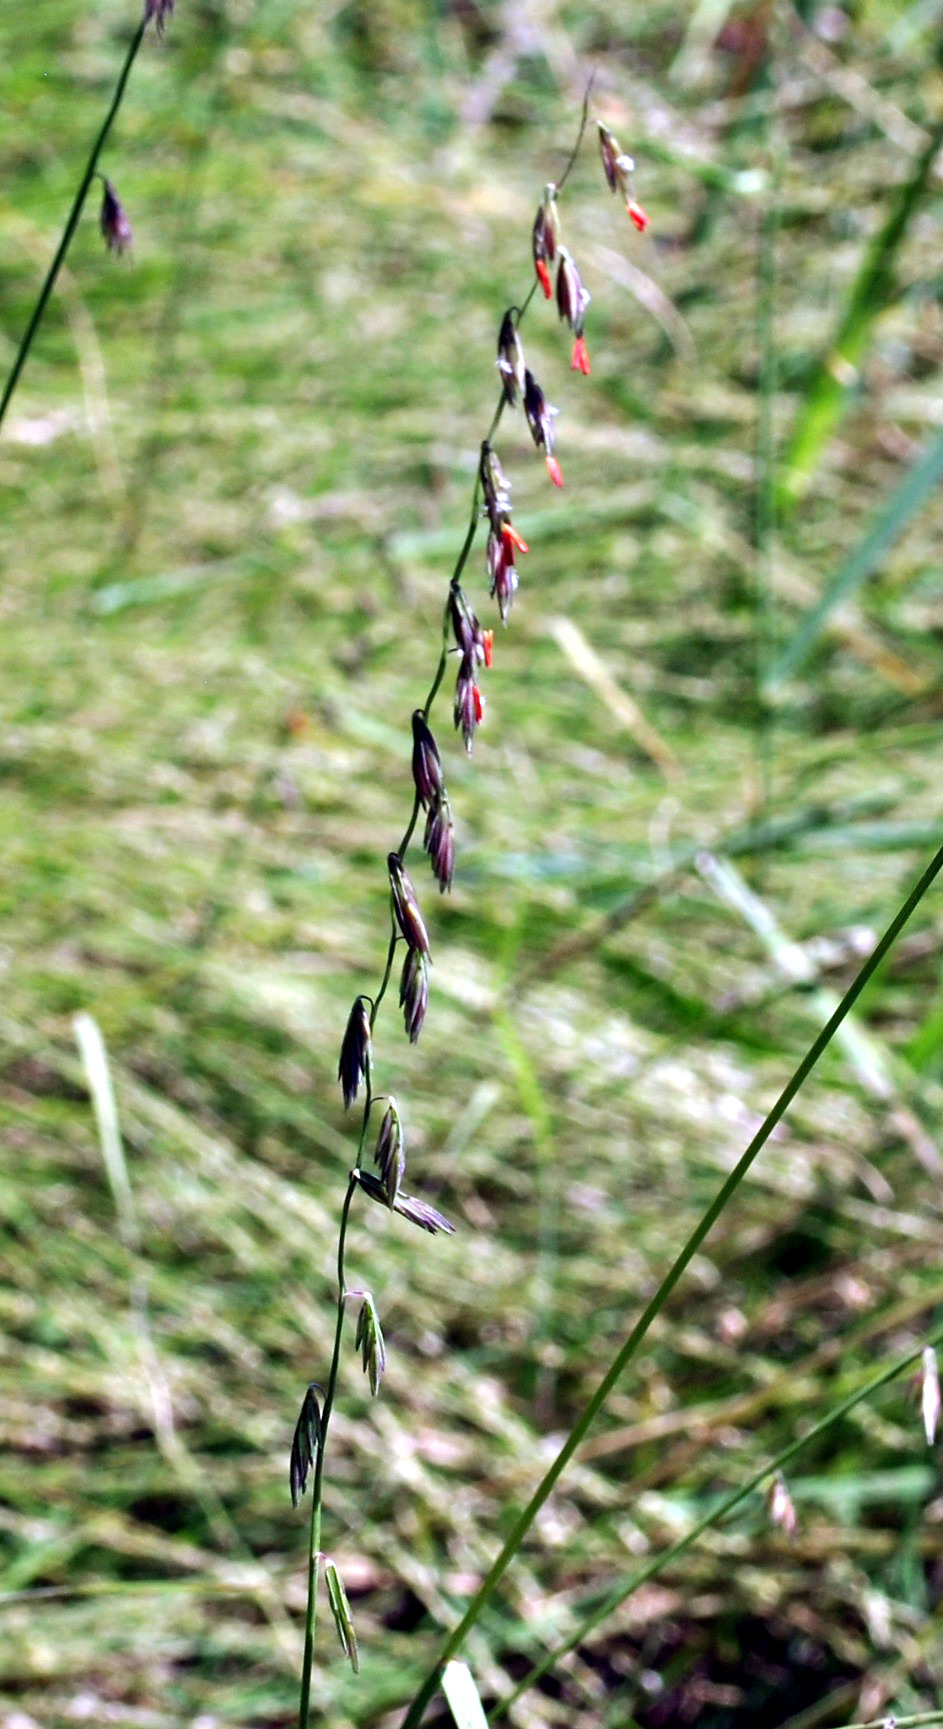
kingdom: Plantae
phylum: Tracheophyta
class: Liliopsida
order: Poales
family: Poaceae
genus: Bouteloua
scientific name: Bouteloua curtipendula
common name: Side-oats grama
